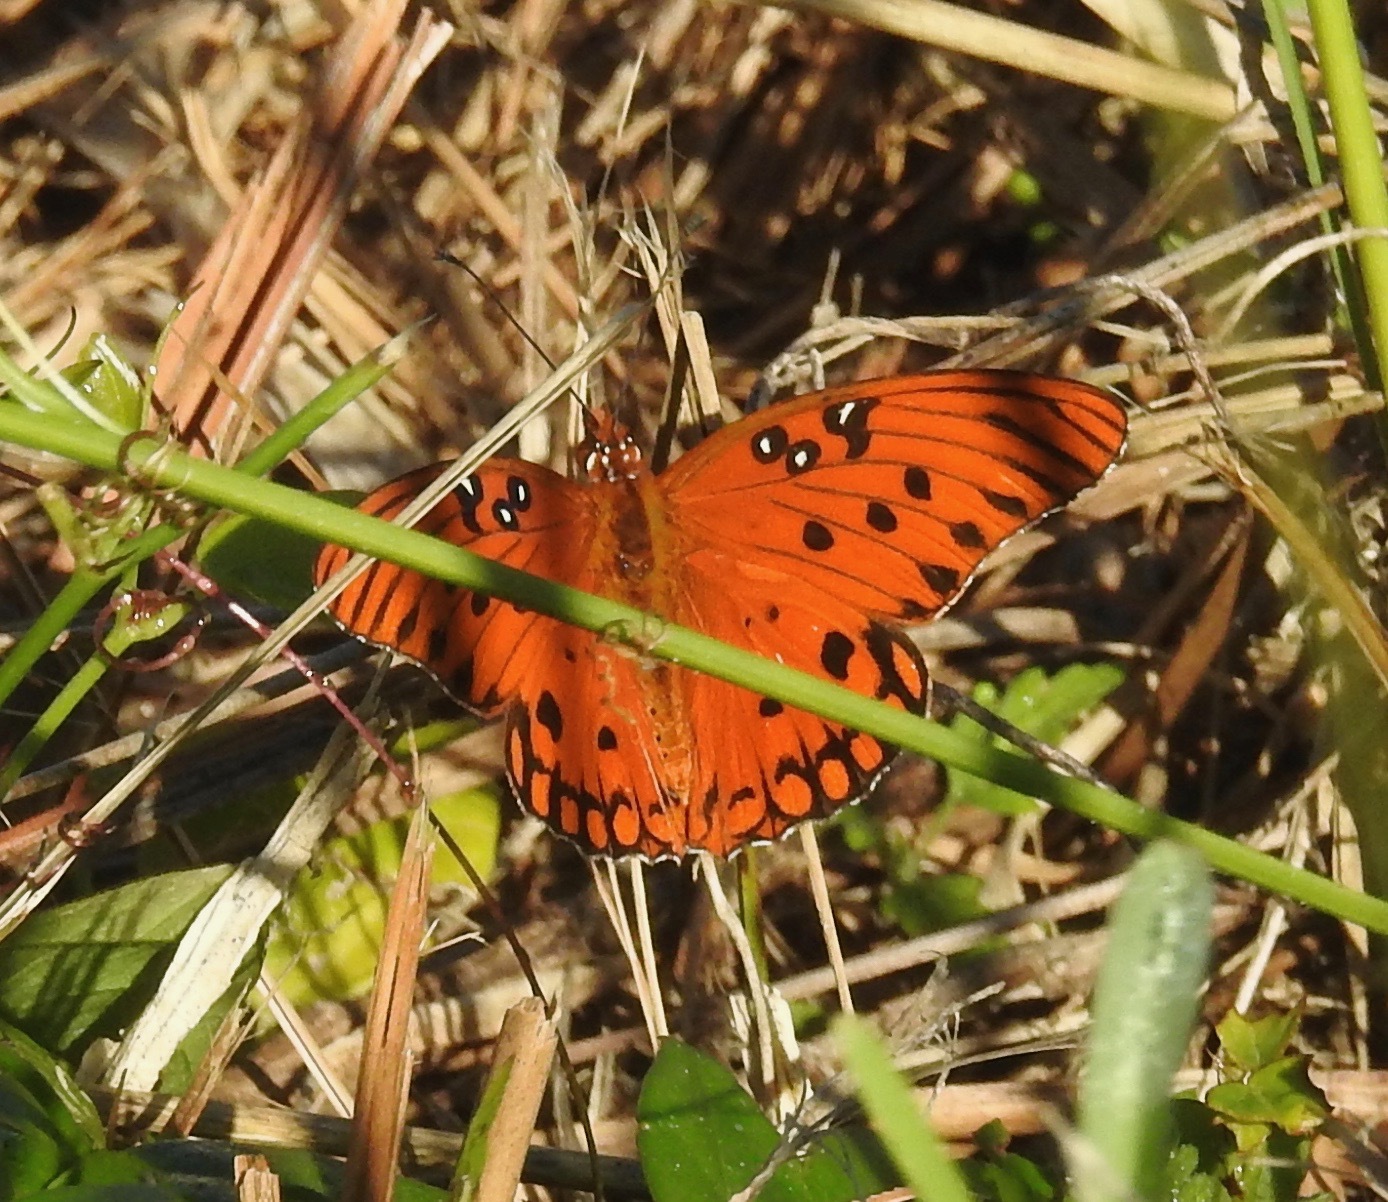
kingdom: Animalia
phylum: Arthropoda
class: Insecta
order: Lepidoptera
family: Nymphalidae
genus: Dione
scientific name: Dione vanillae
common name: Gulf fritillary
